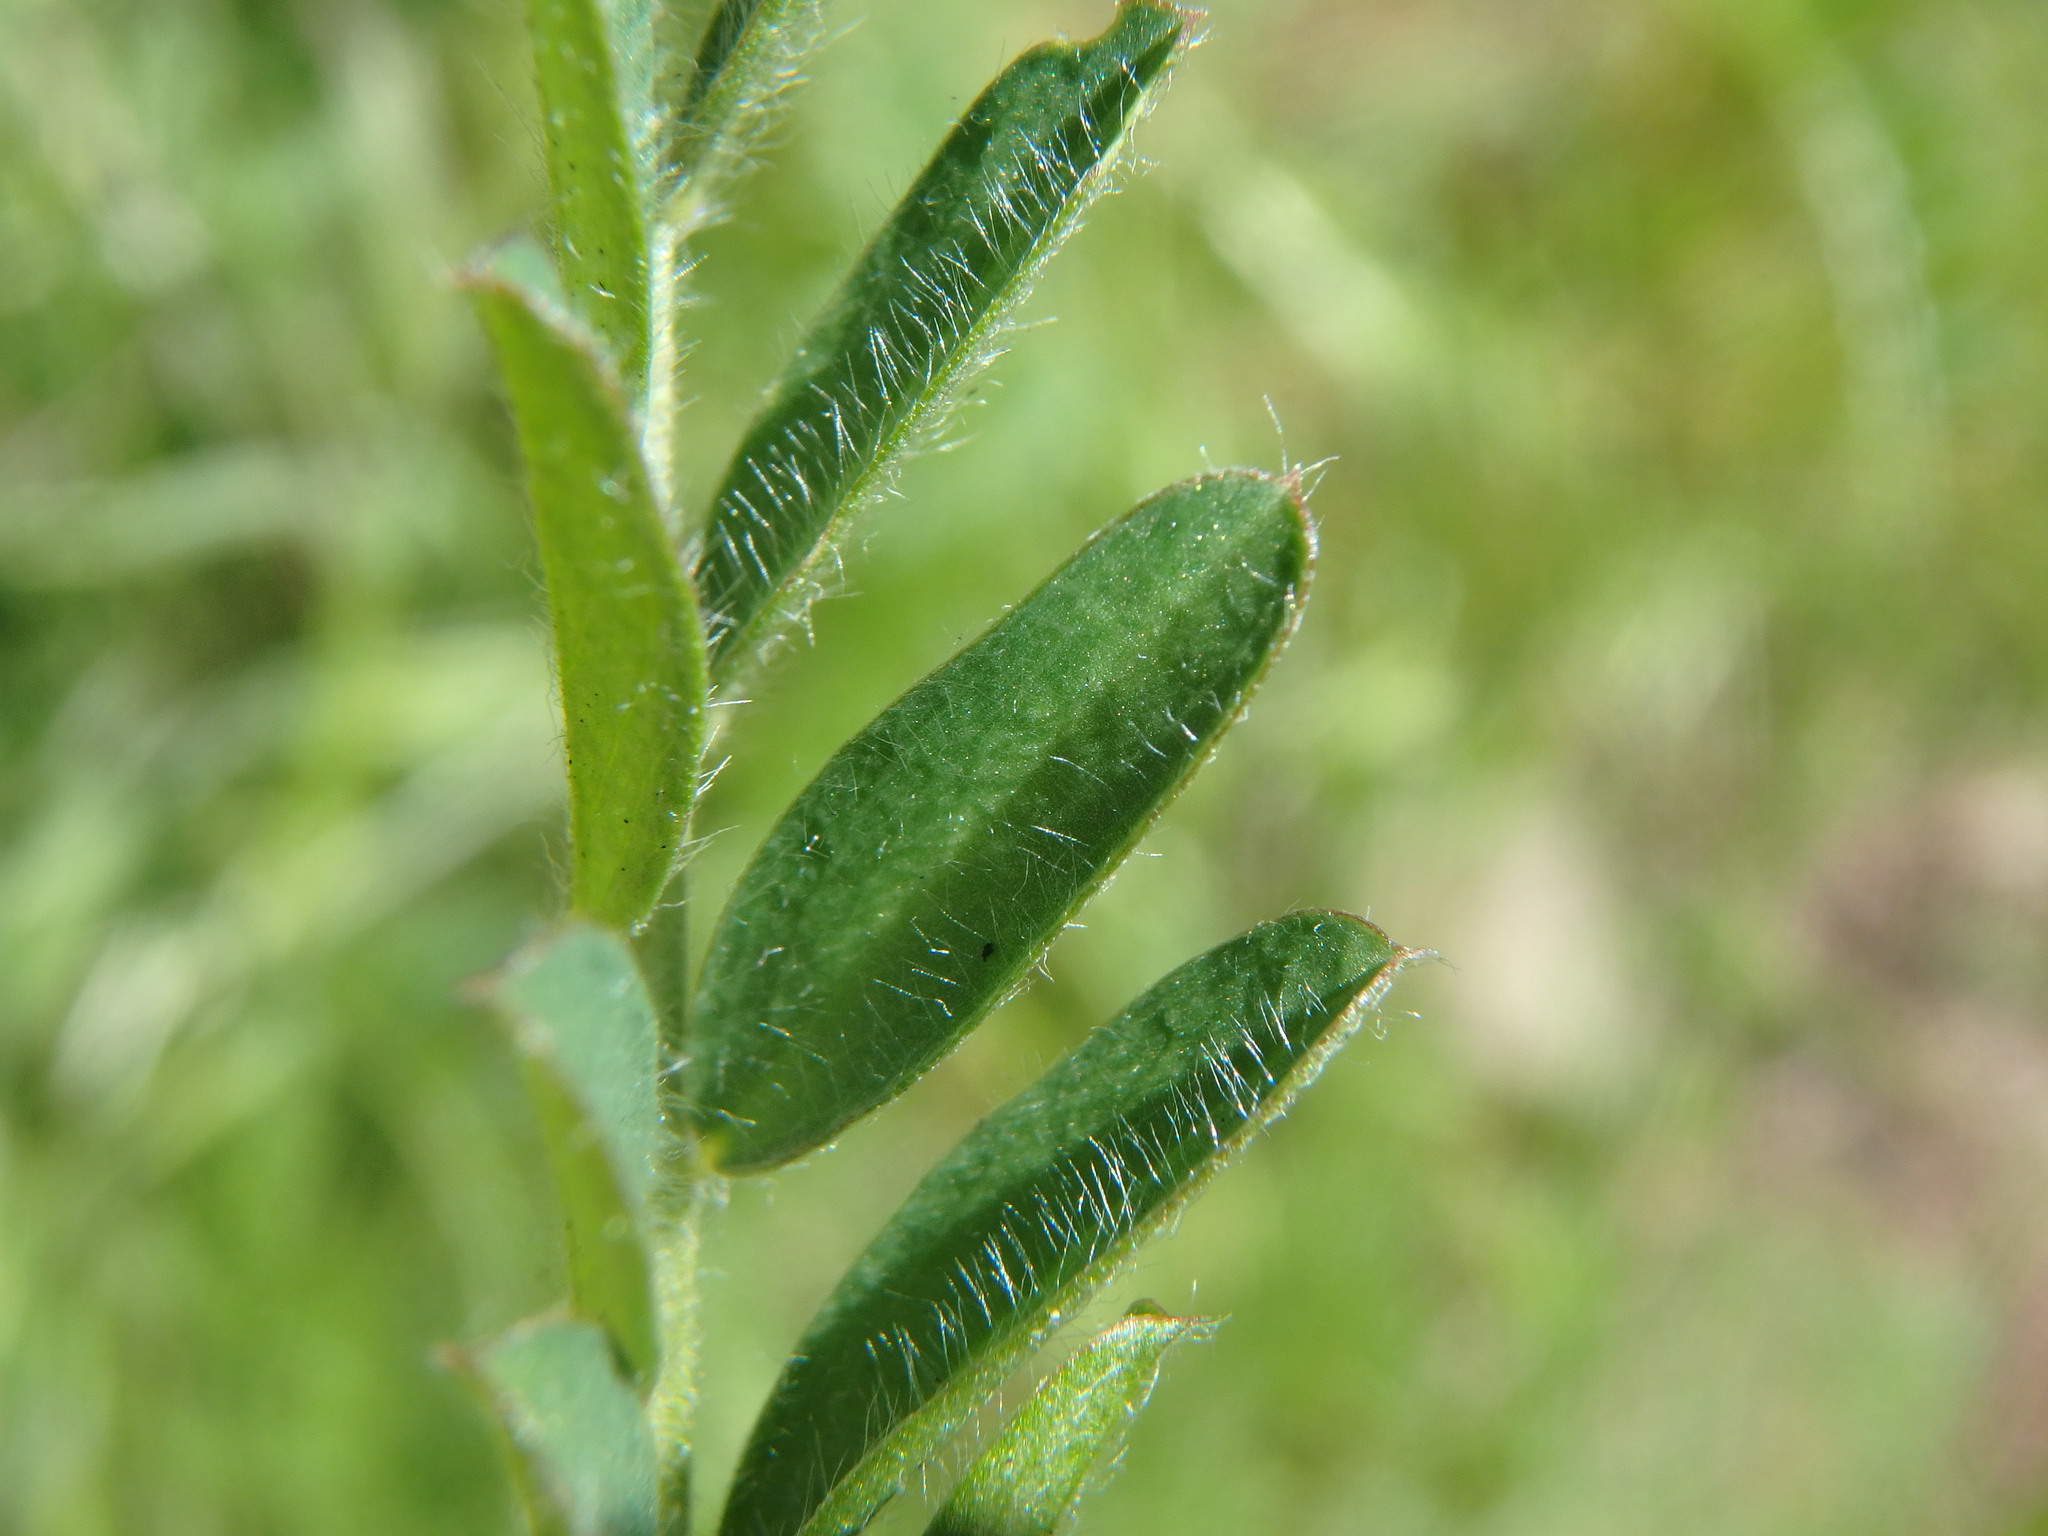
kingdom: Plantae
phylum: Tracheophyta
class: Magnoliopsida
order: Fabales
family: Fabaceae
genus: Vicia
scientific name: Vicia benghalensis
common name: Purple vetch
